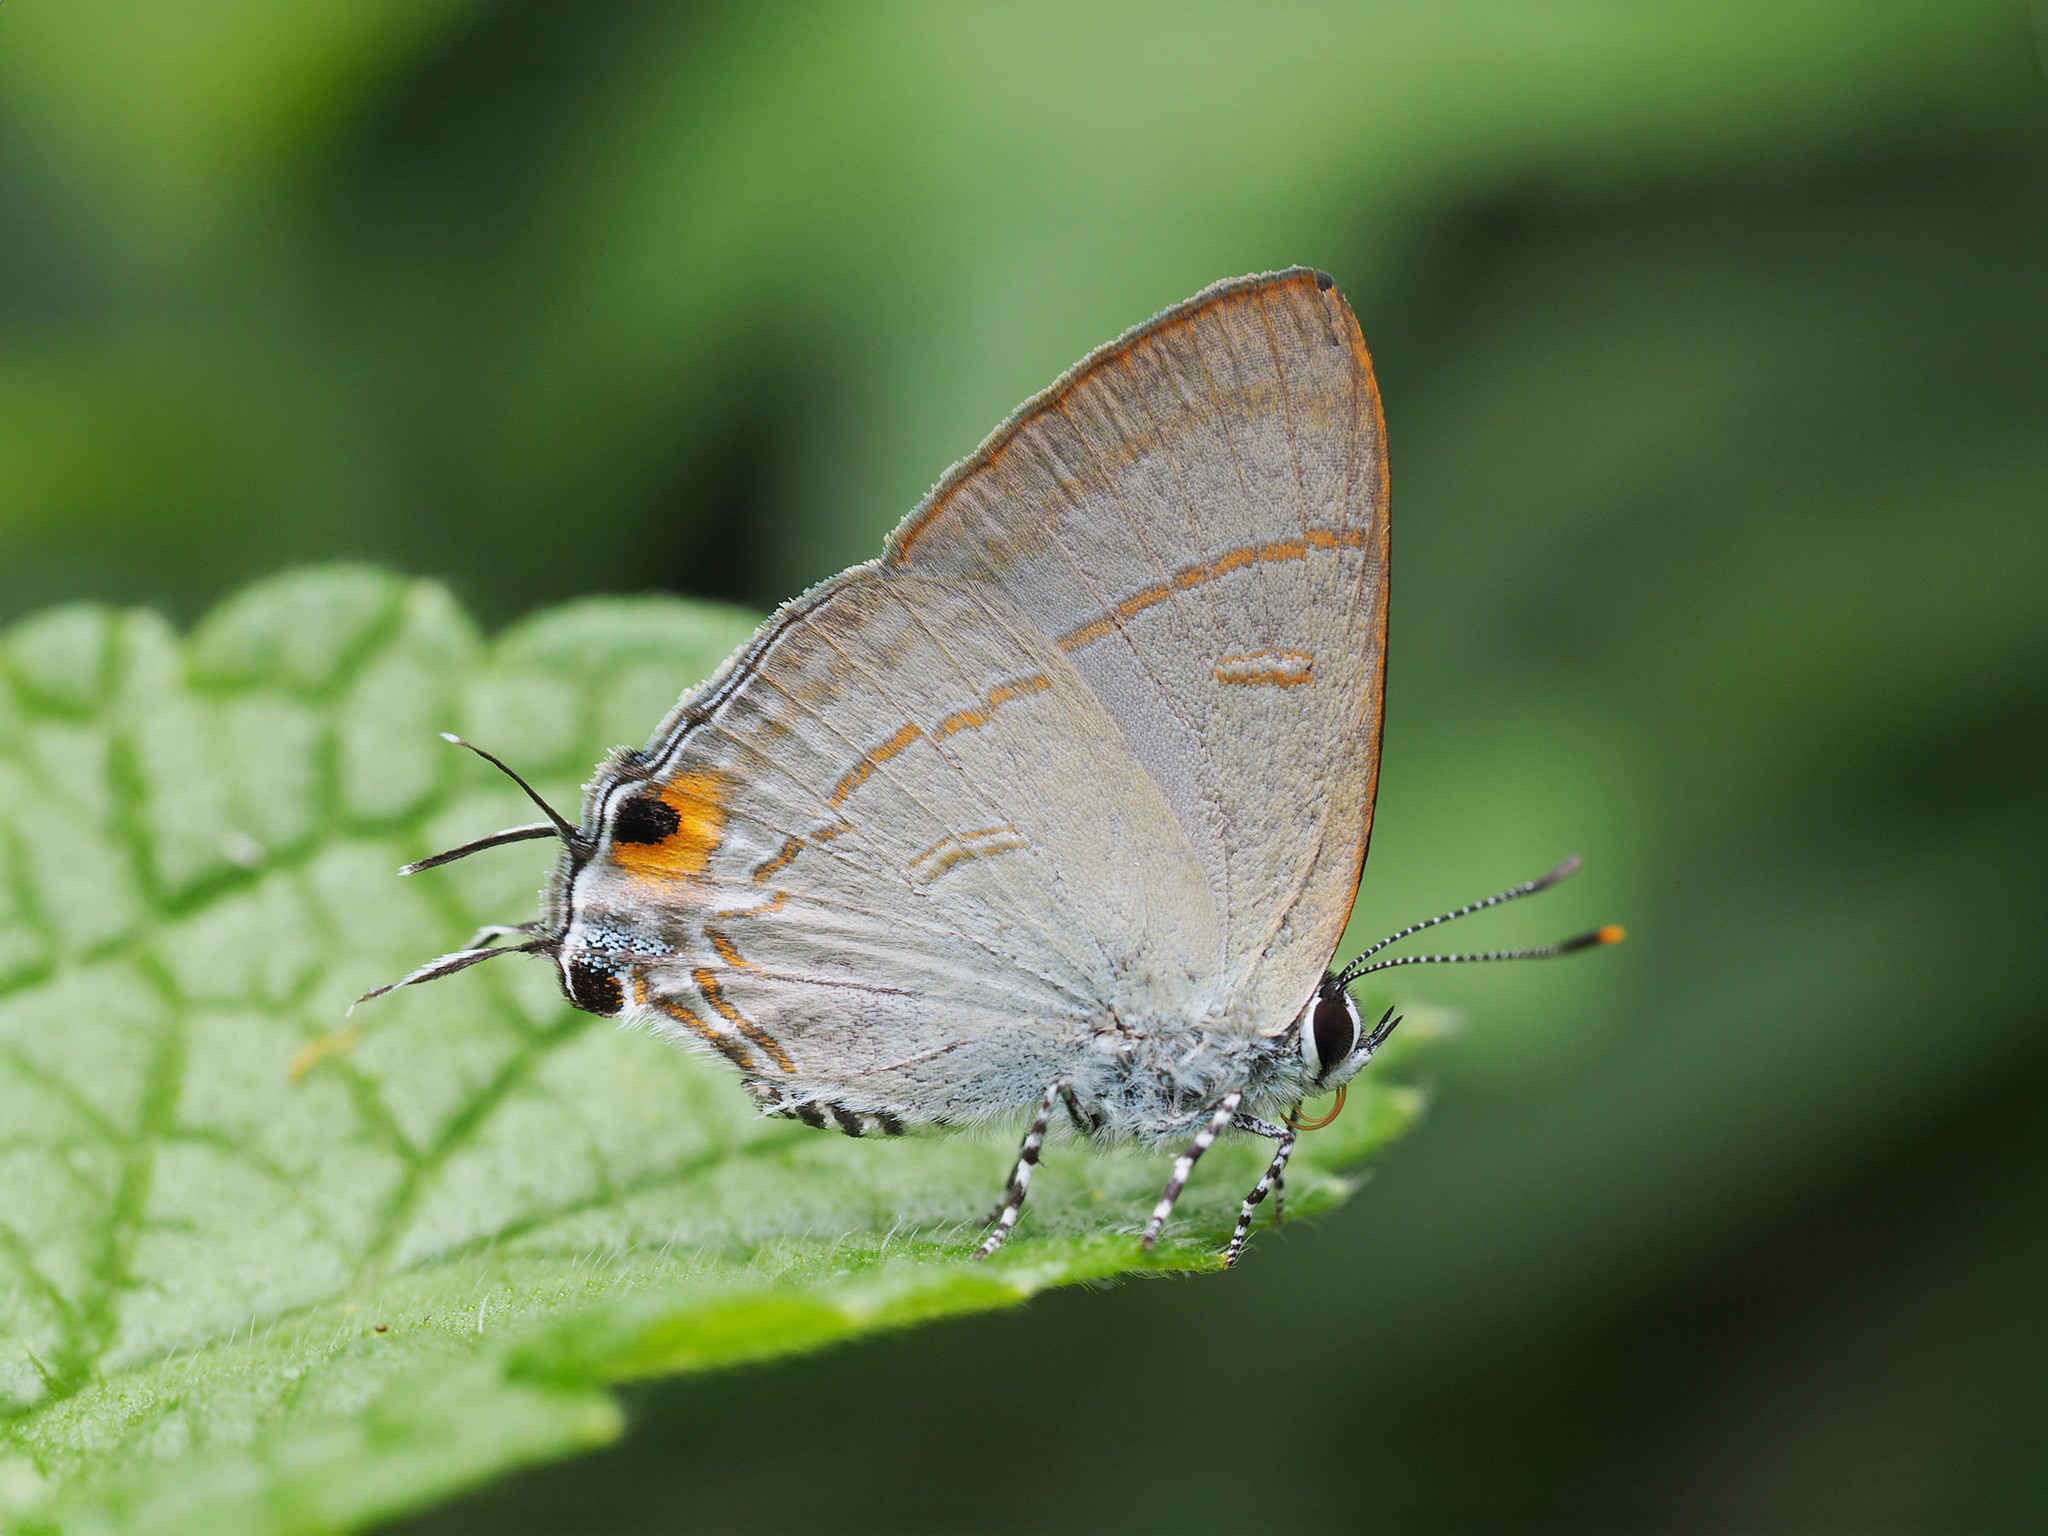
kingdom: Animalia
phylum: Arthropoda
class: Insecta
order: Lepidoptera
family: Lycaenidae
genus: Hypolycaena
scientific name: Hypolycaena erylus
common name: Common tit
